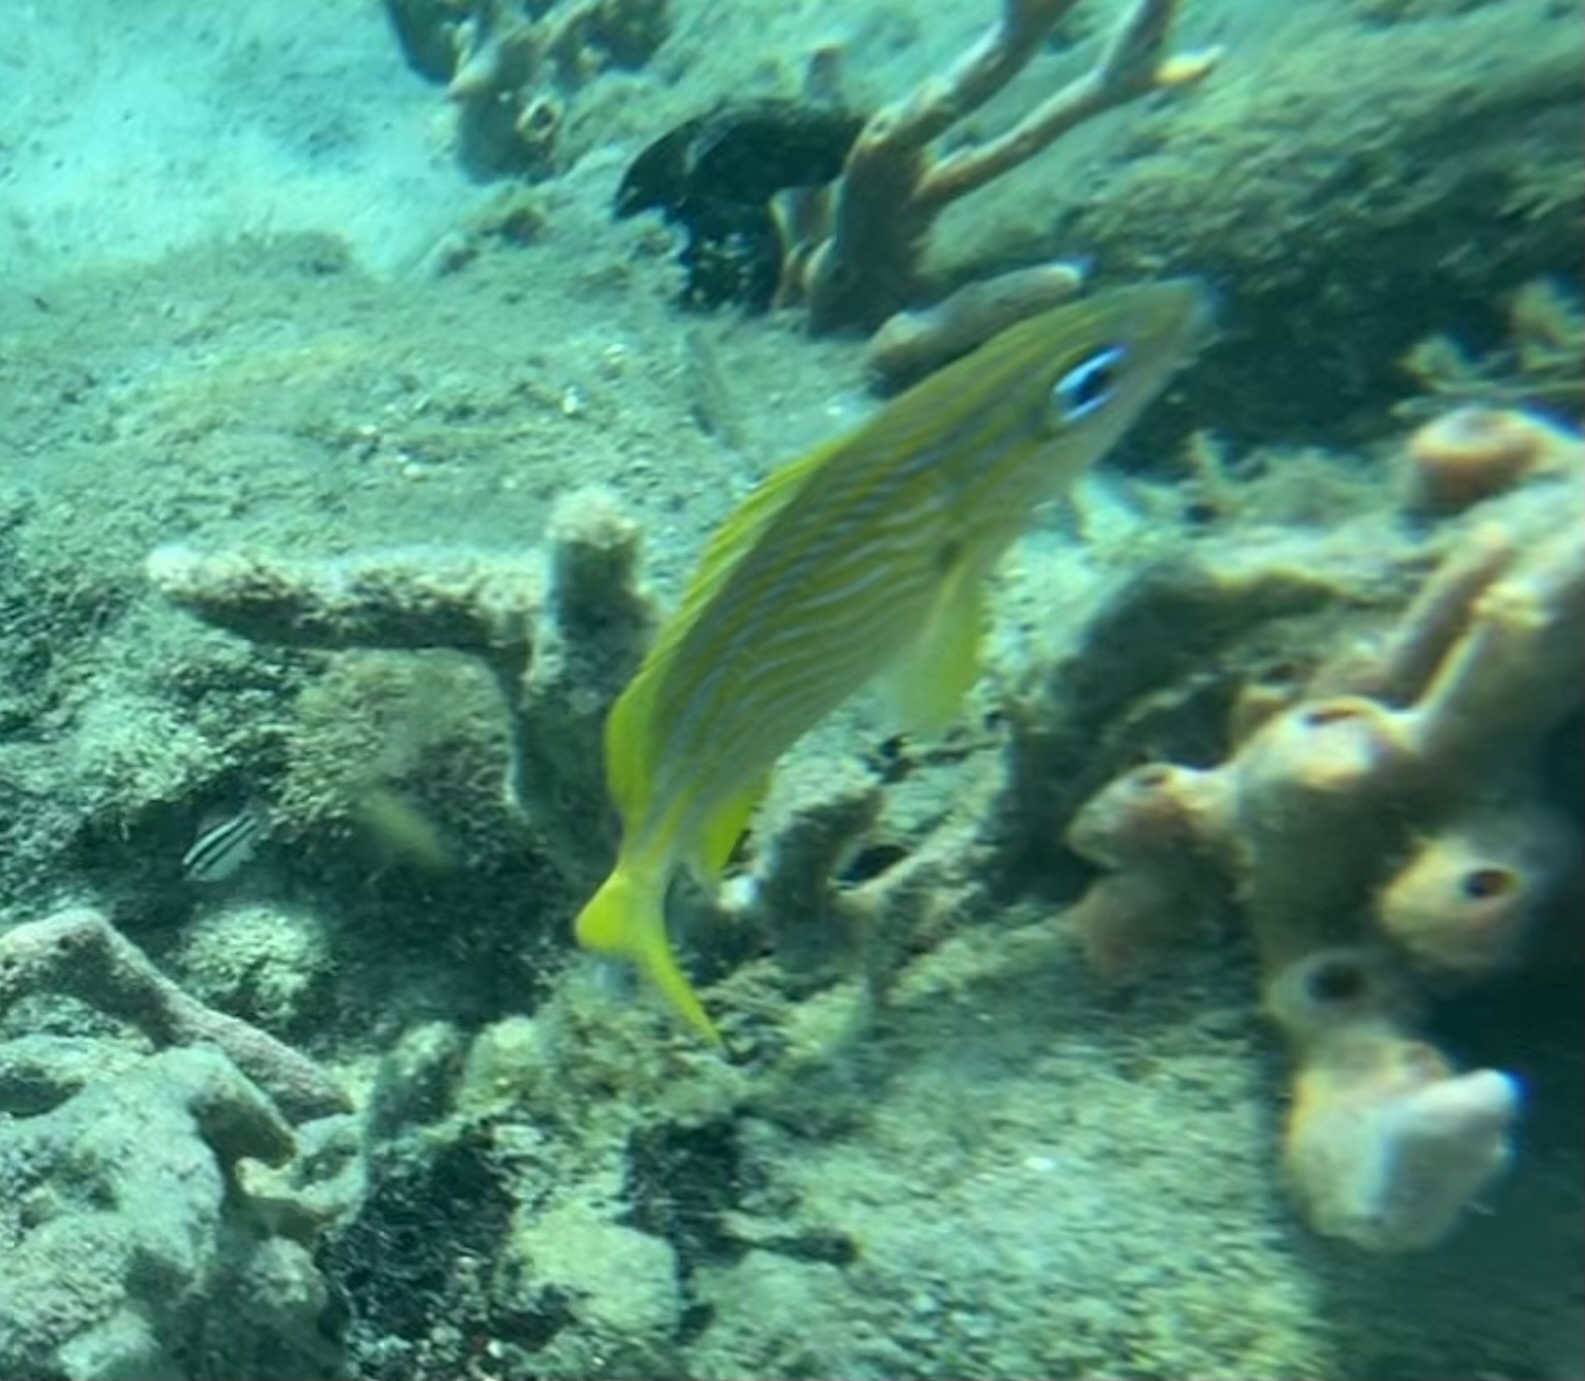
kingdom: Animalia
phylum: Chordata
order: Perciformes
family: Haemulidae
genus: Haemulon
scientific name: Haemulon flavolineatum
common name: French grunt
